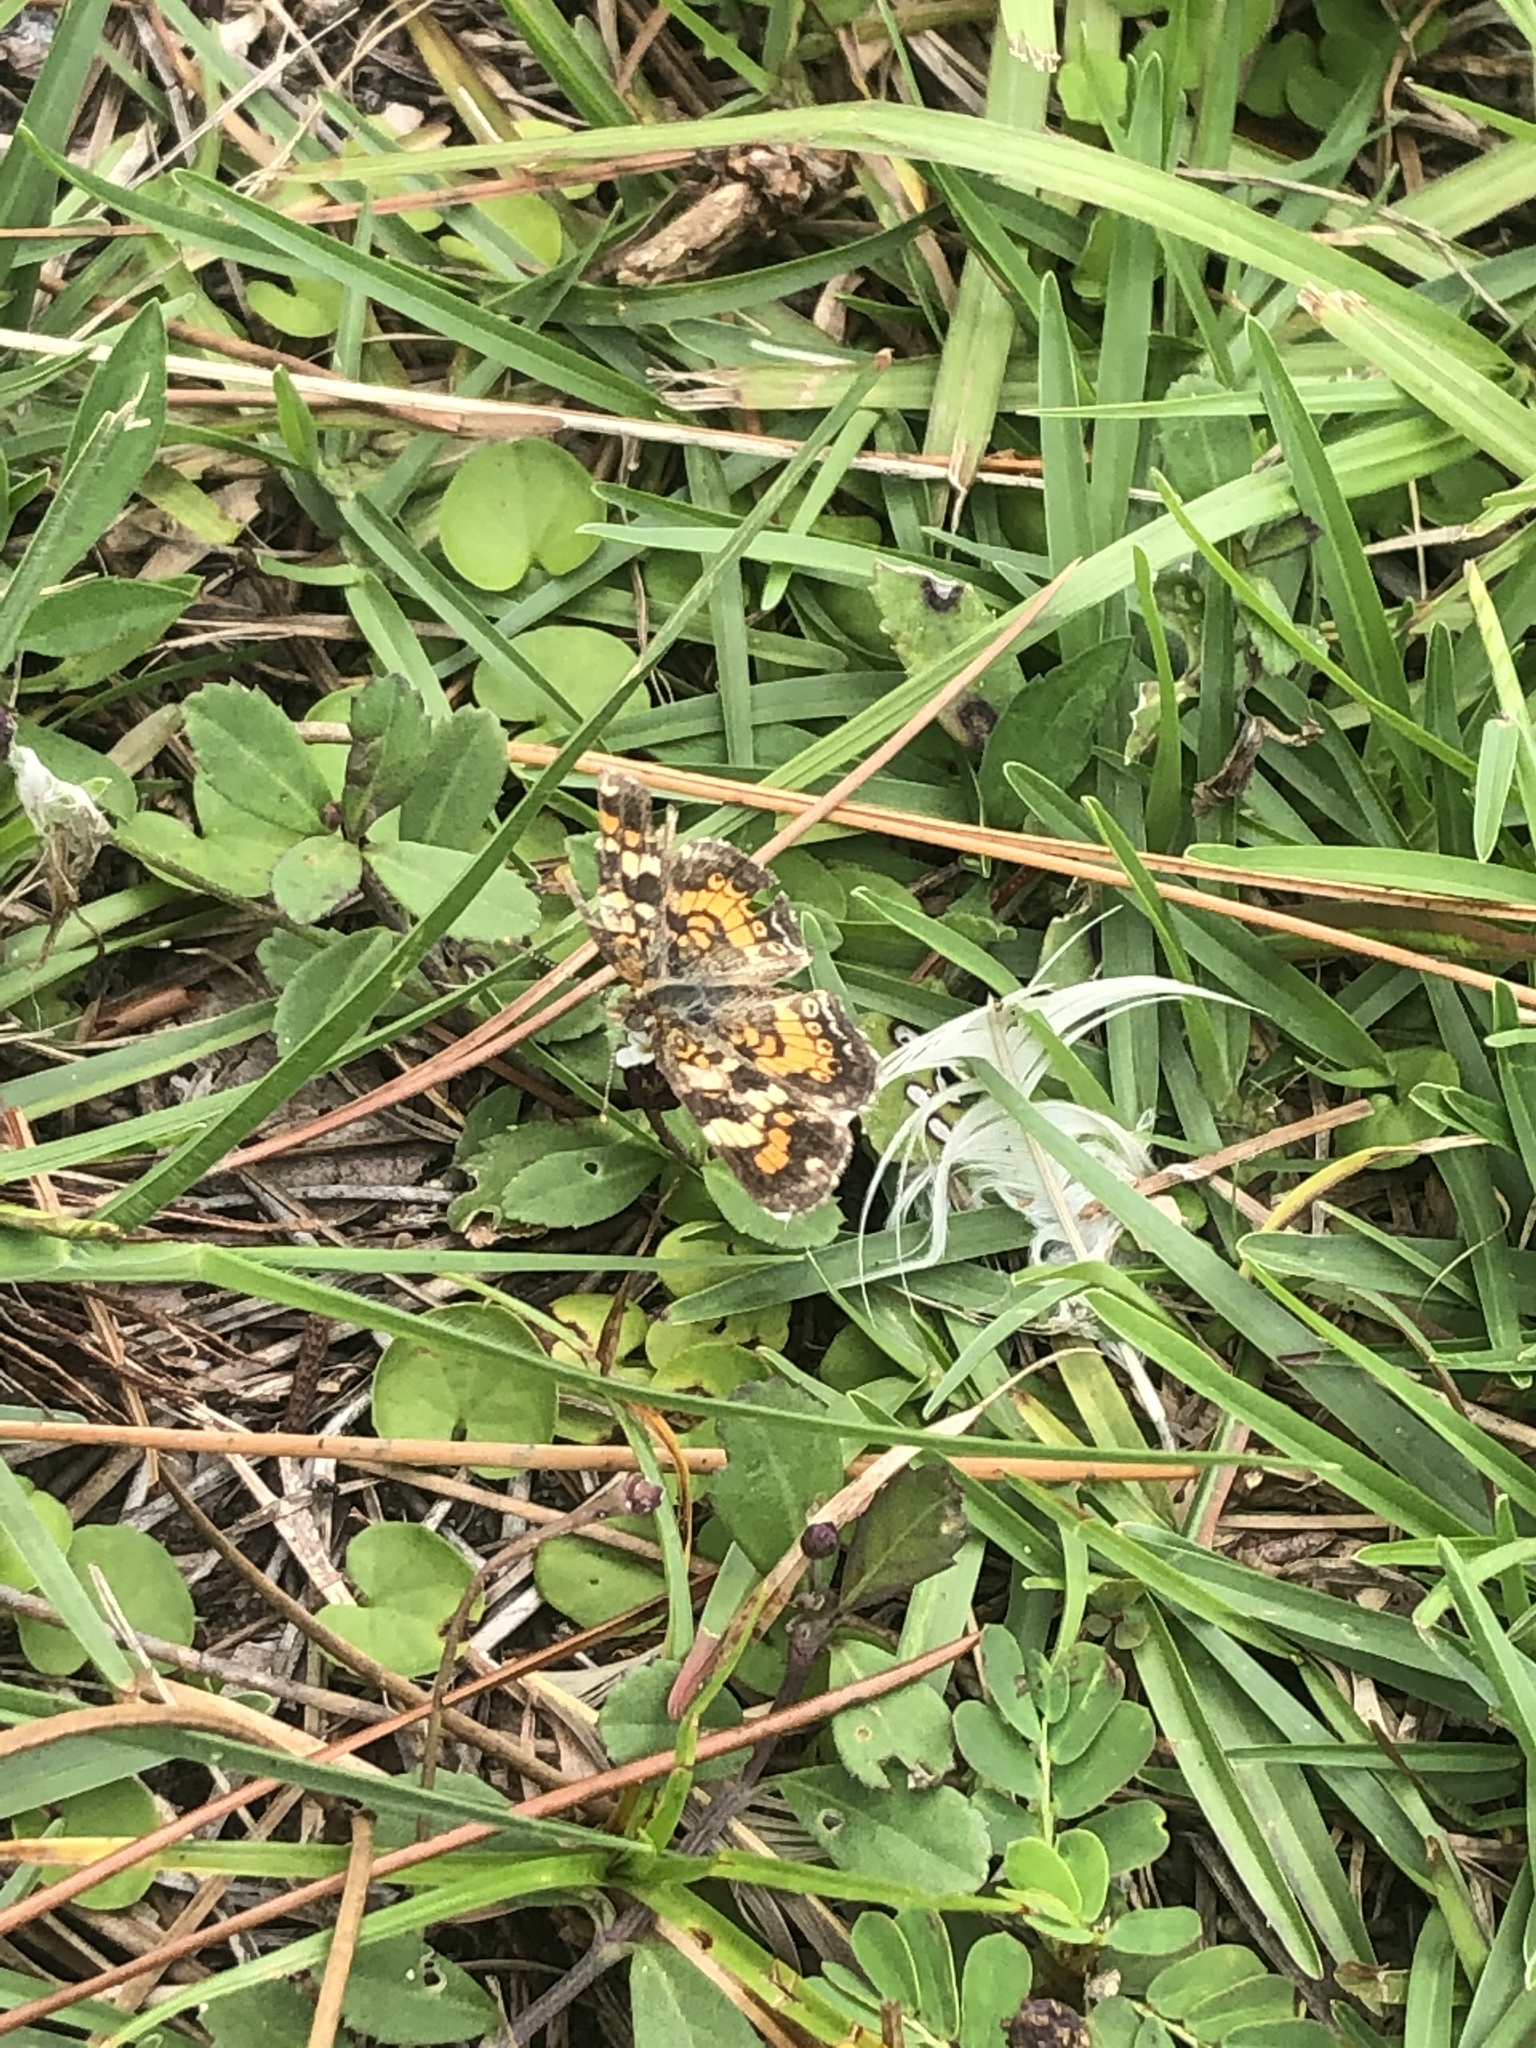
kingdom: Animalia
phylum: Arthropoda
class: Insecta
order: Lepidoptera
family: Nymphalidae
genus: Phyciodes
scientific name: Phyciodes phaon
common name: Phaon crescent
